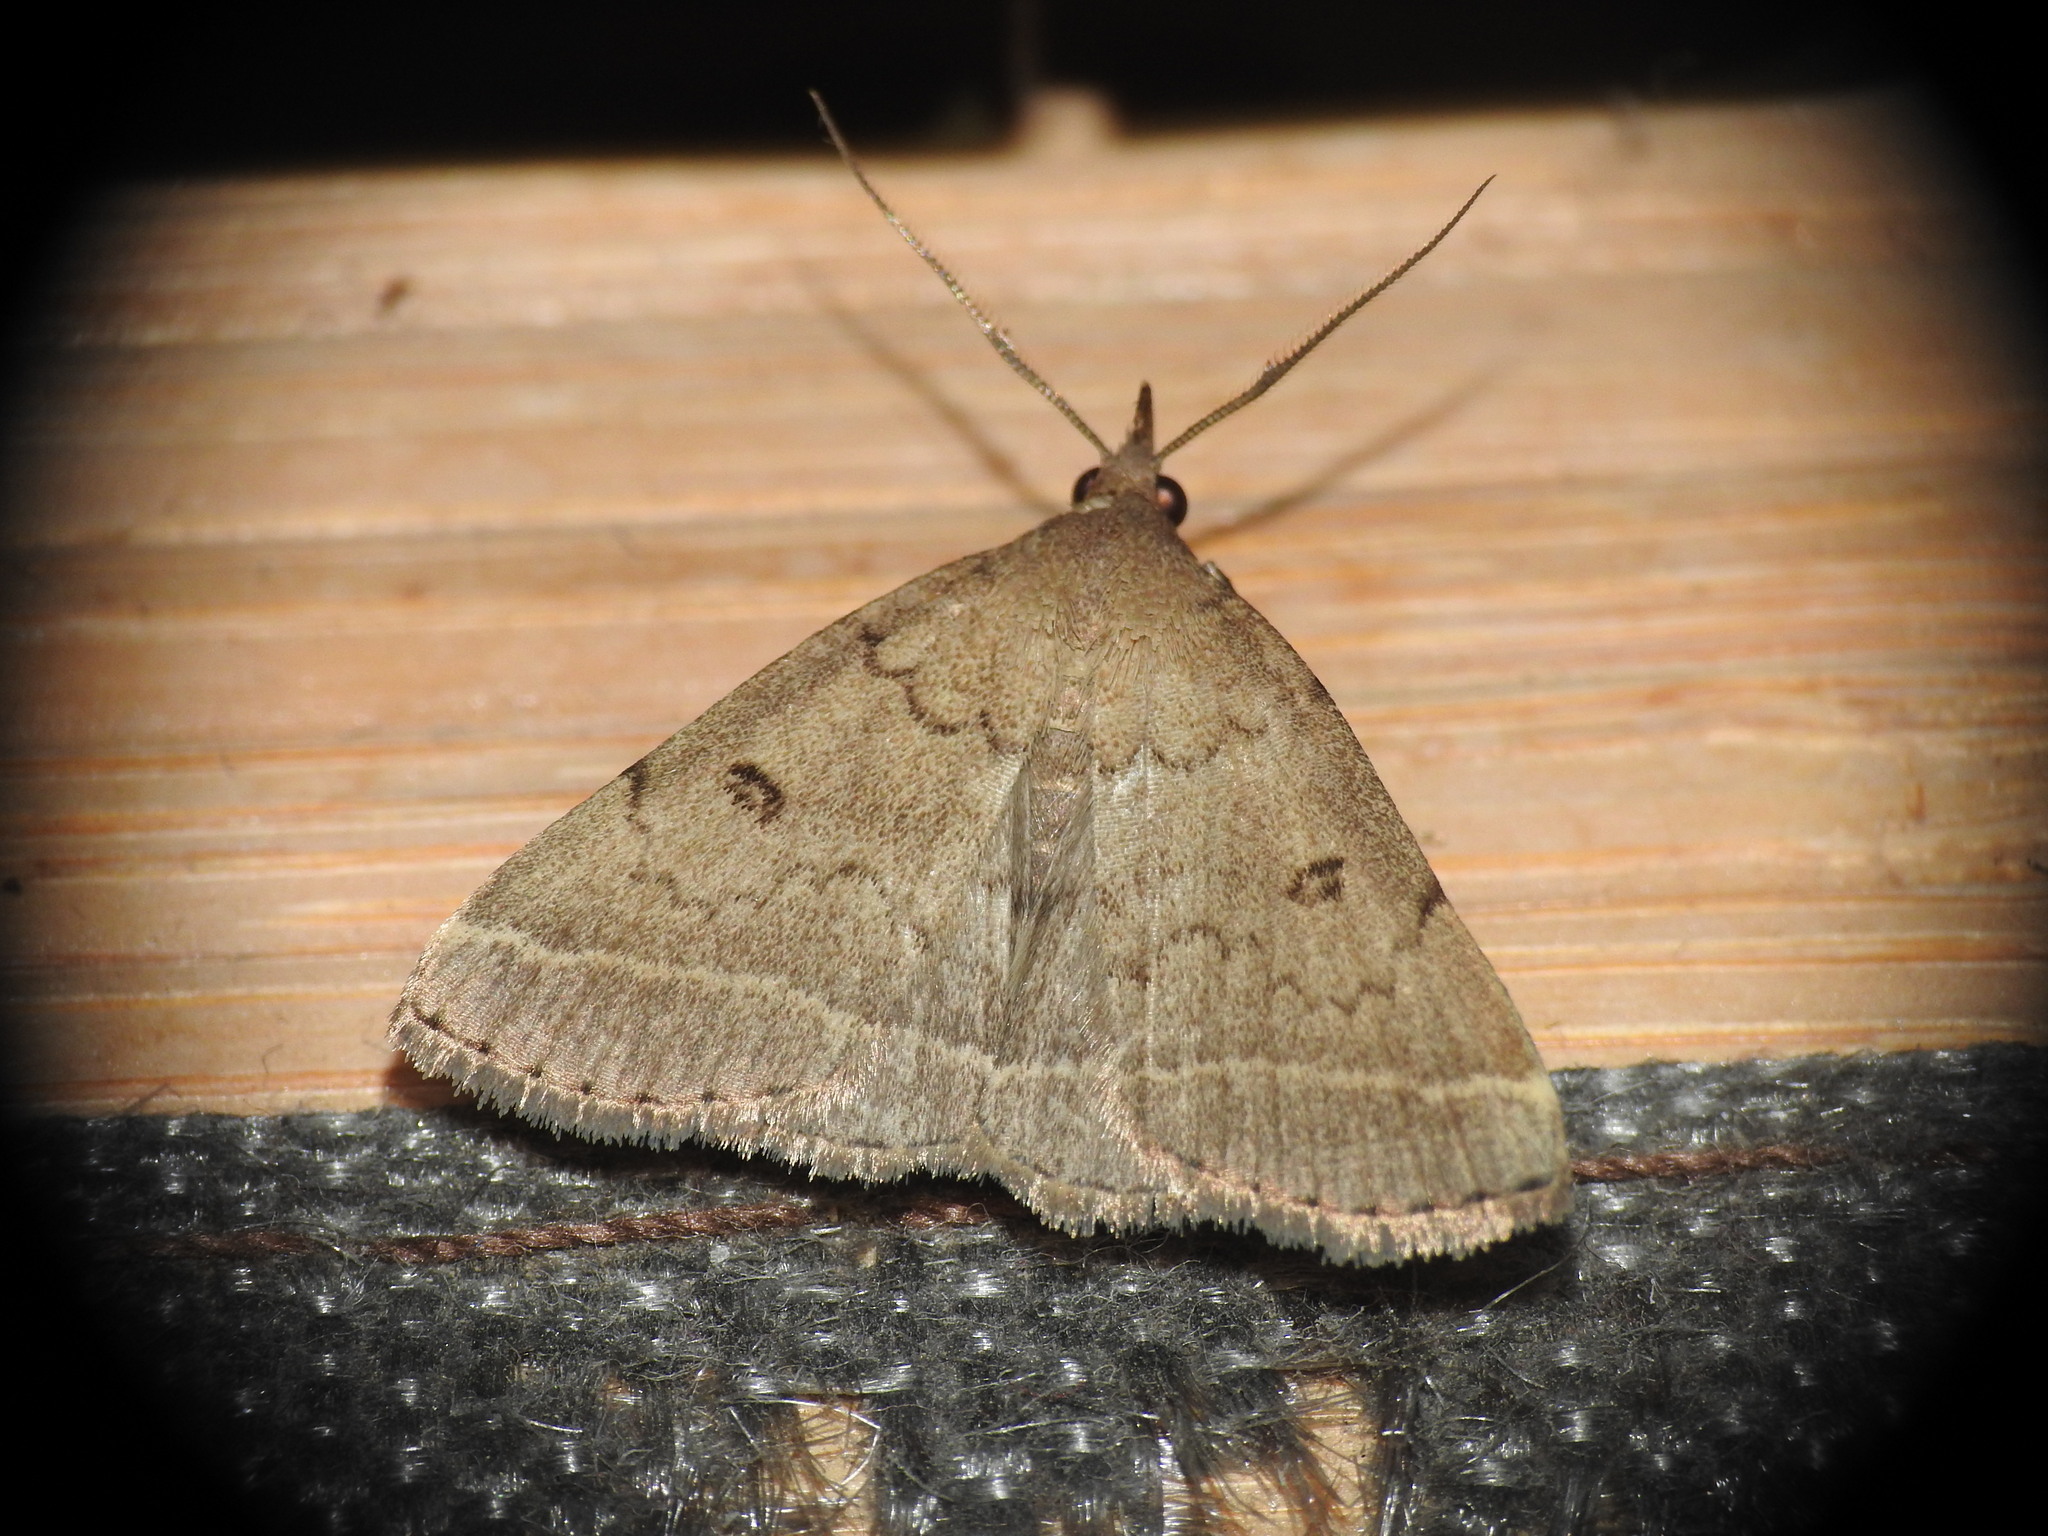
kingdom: Animalia
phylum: Arthropoda
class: Insecta
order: Lepidoptera
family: Erebidae
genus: Pechipogo
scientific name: Pechipogo plumigeralis
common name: Plumed fan-foot
